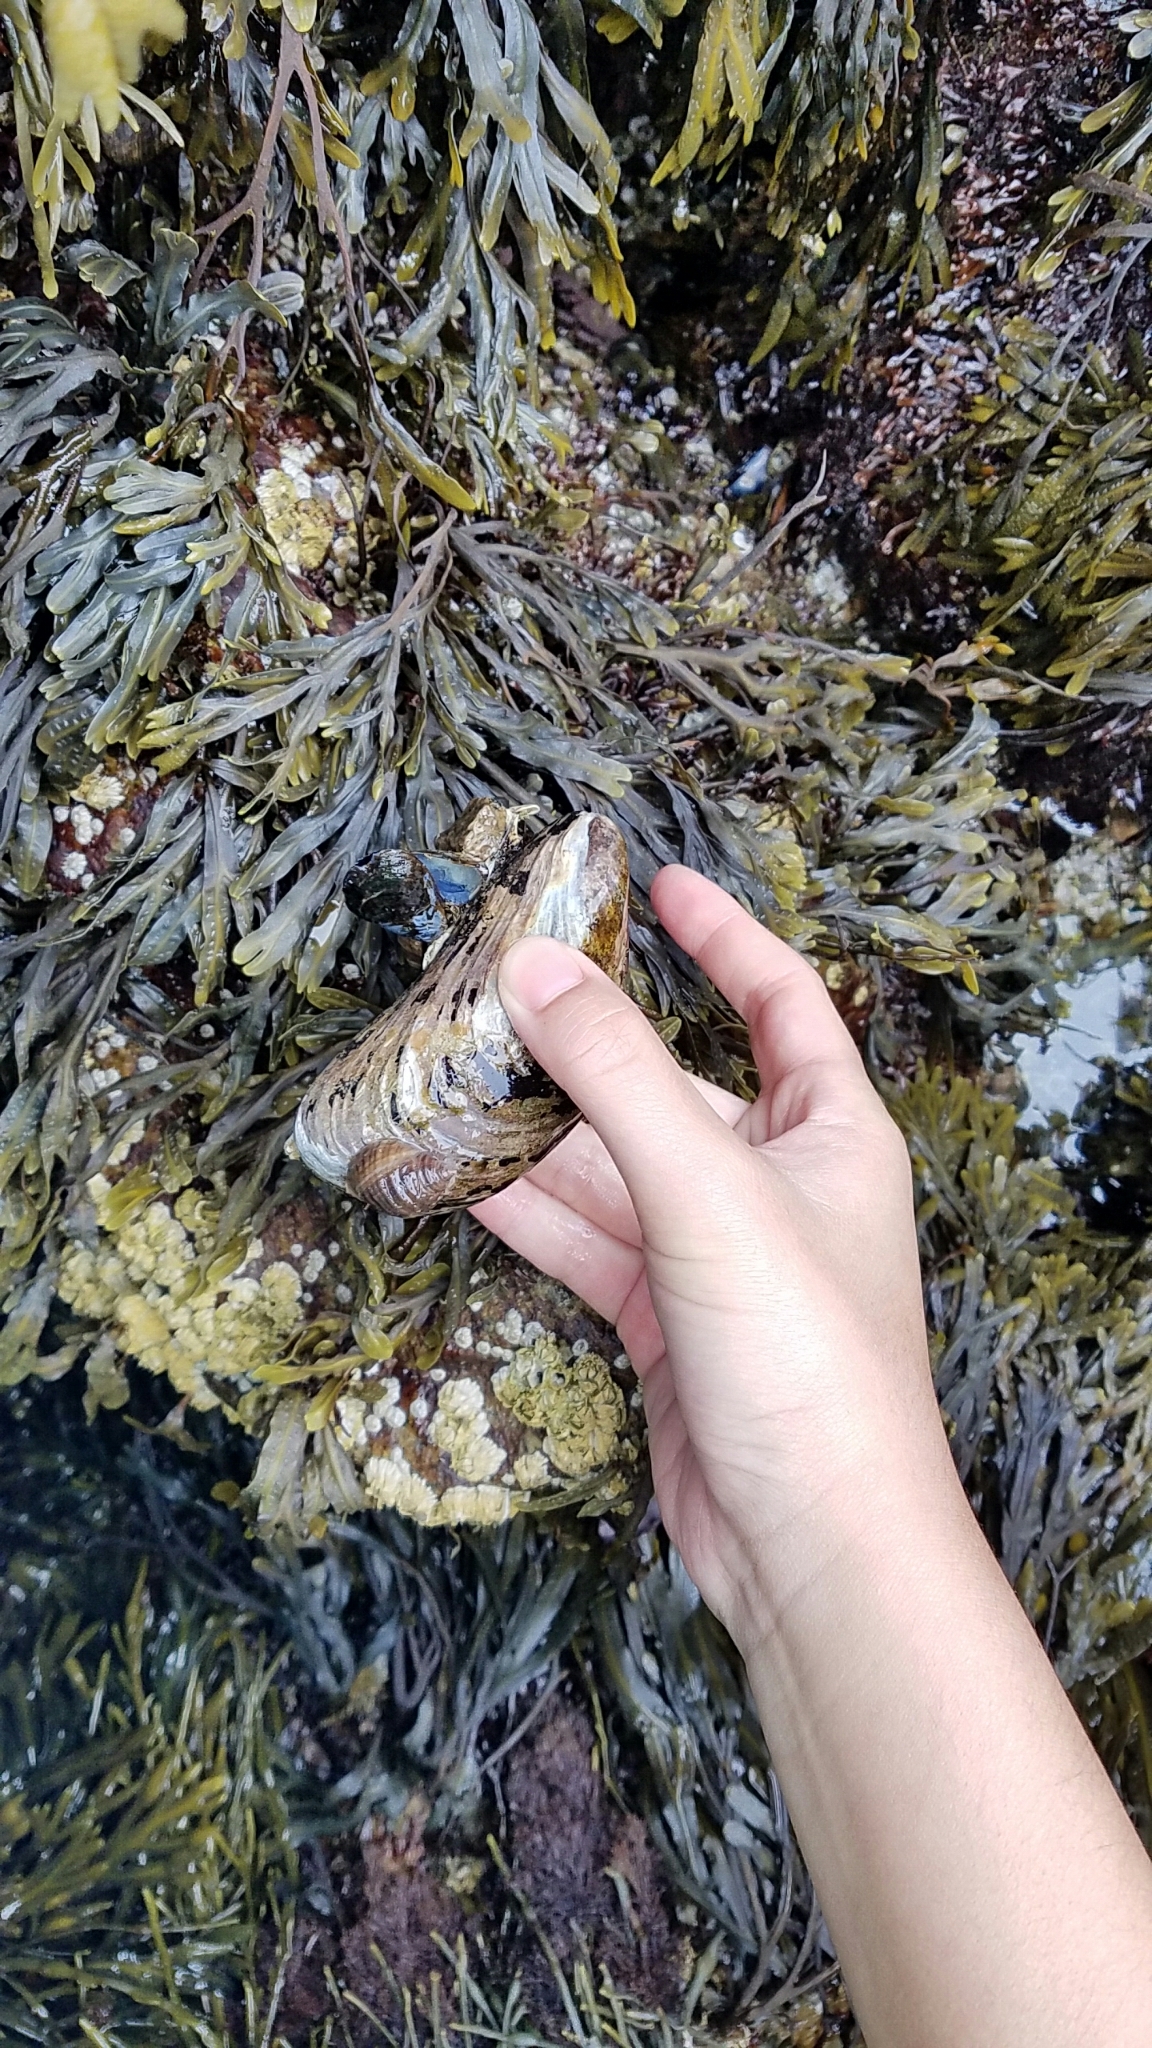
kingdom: Animalia
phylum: Mollusca
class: Bivalvia
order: Mytilida
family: Mytilidae
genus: Modiolus
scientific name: Modiolus modiolus
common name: Horse-mussel
